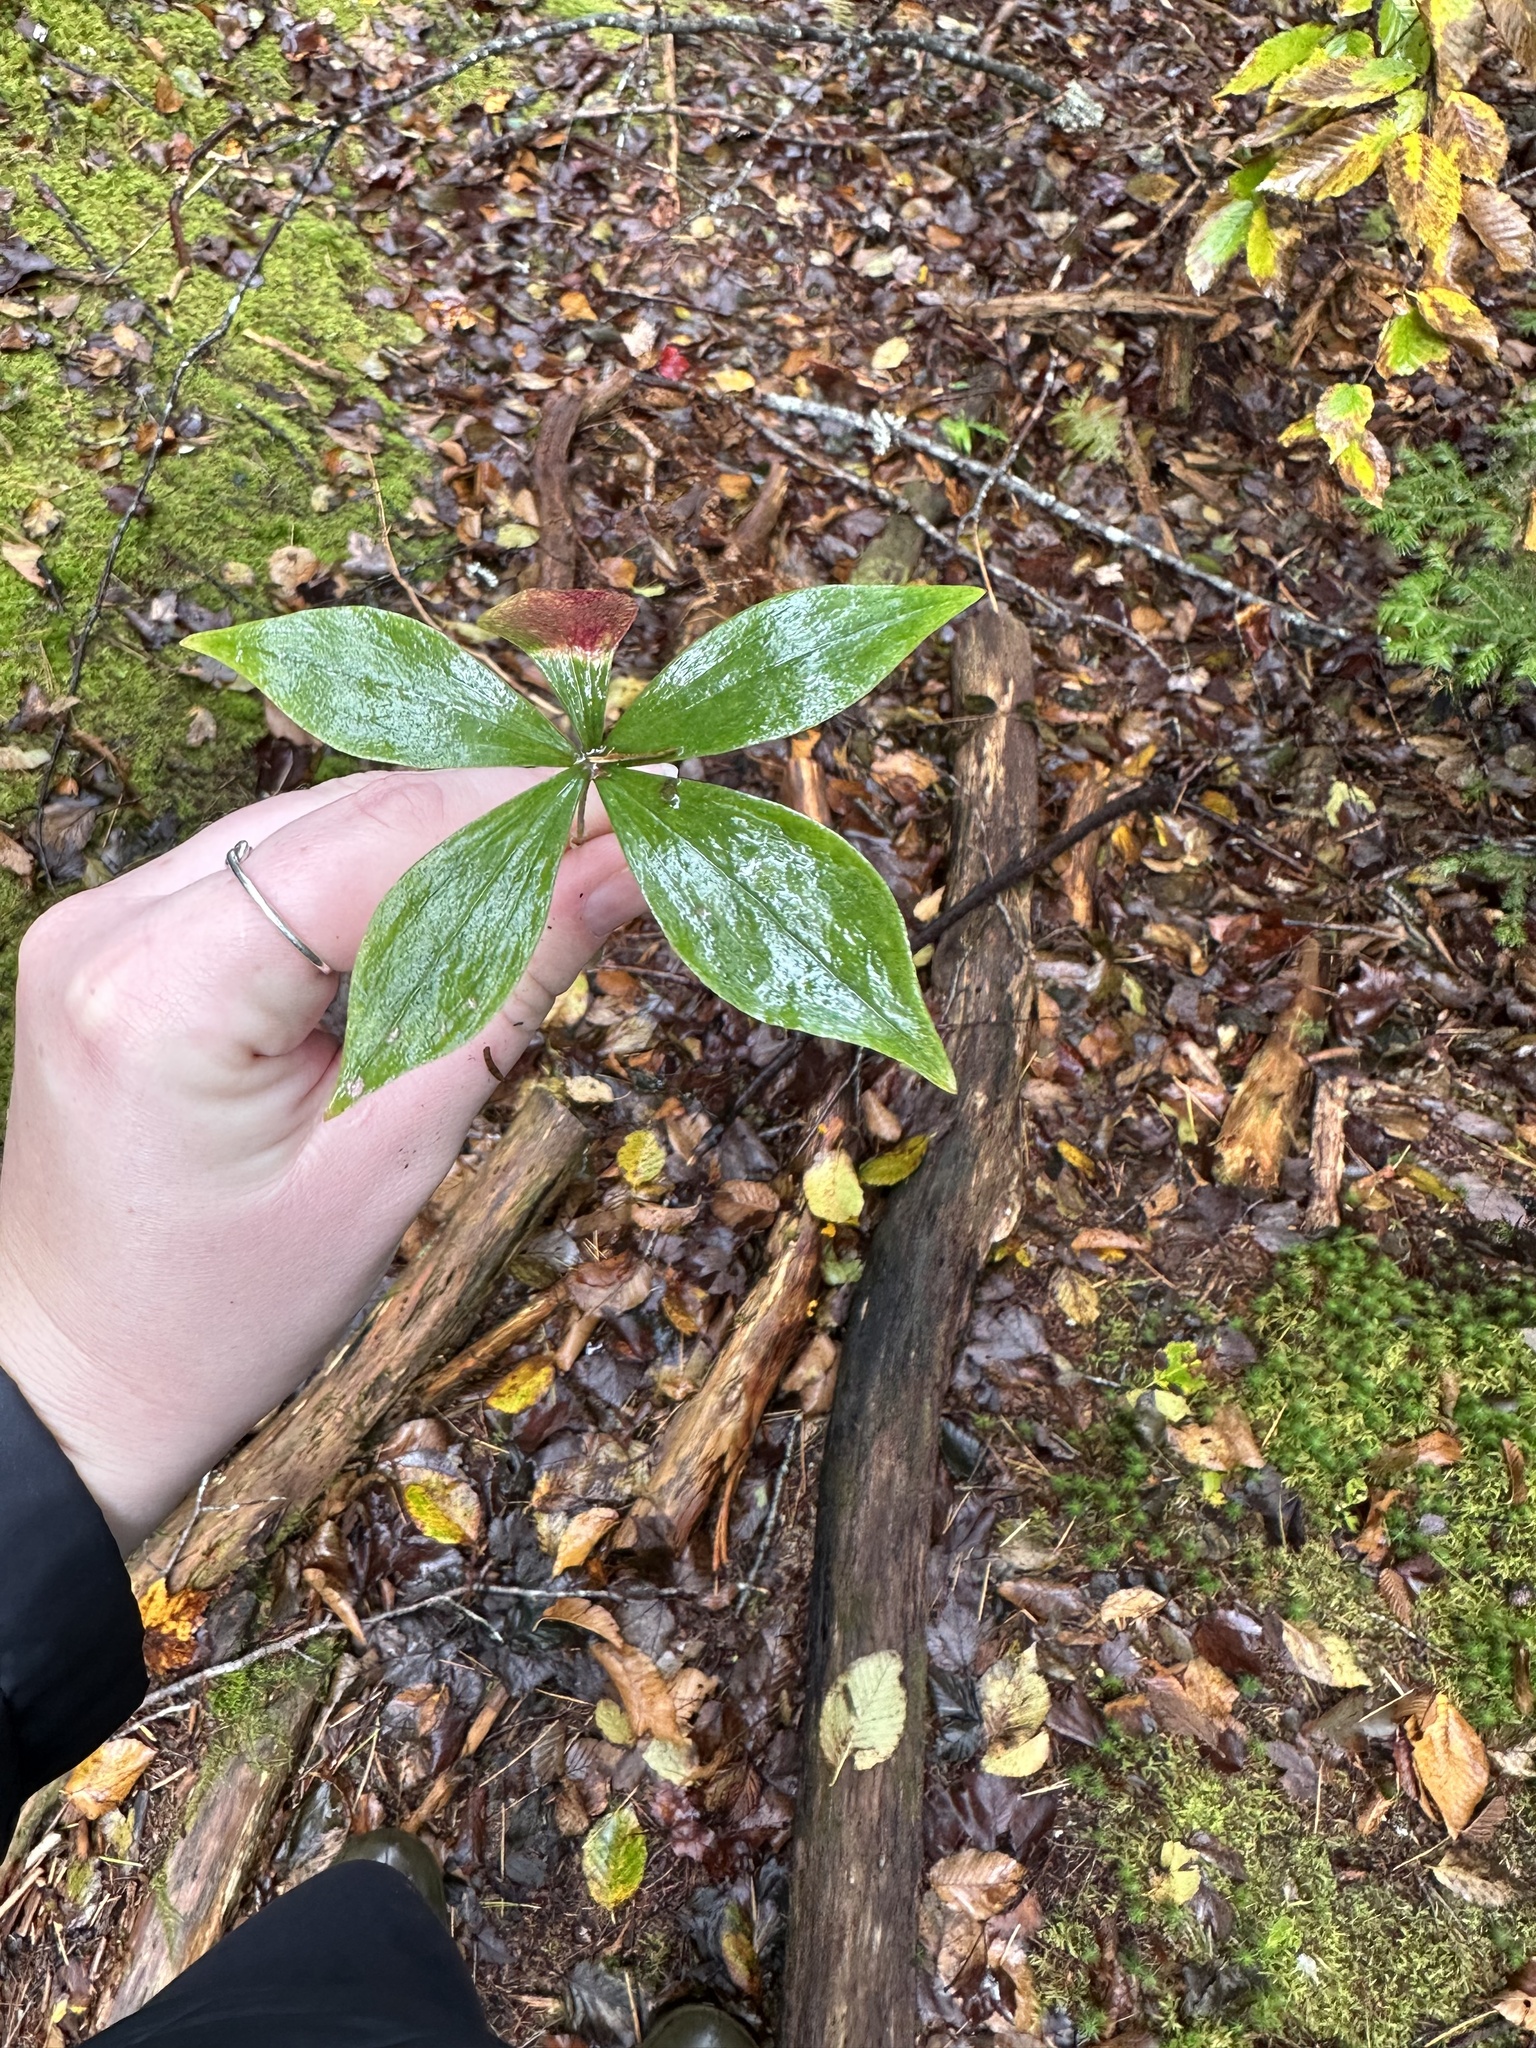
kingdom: Plantae
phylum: Tracheophyta
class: Liliopsida
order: Liliales
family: Liliaceae
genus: Medeola
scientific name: Medeola virginiana
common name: Indian cucumber-root
